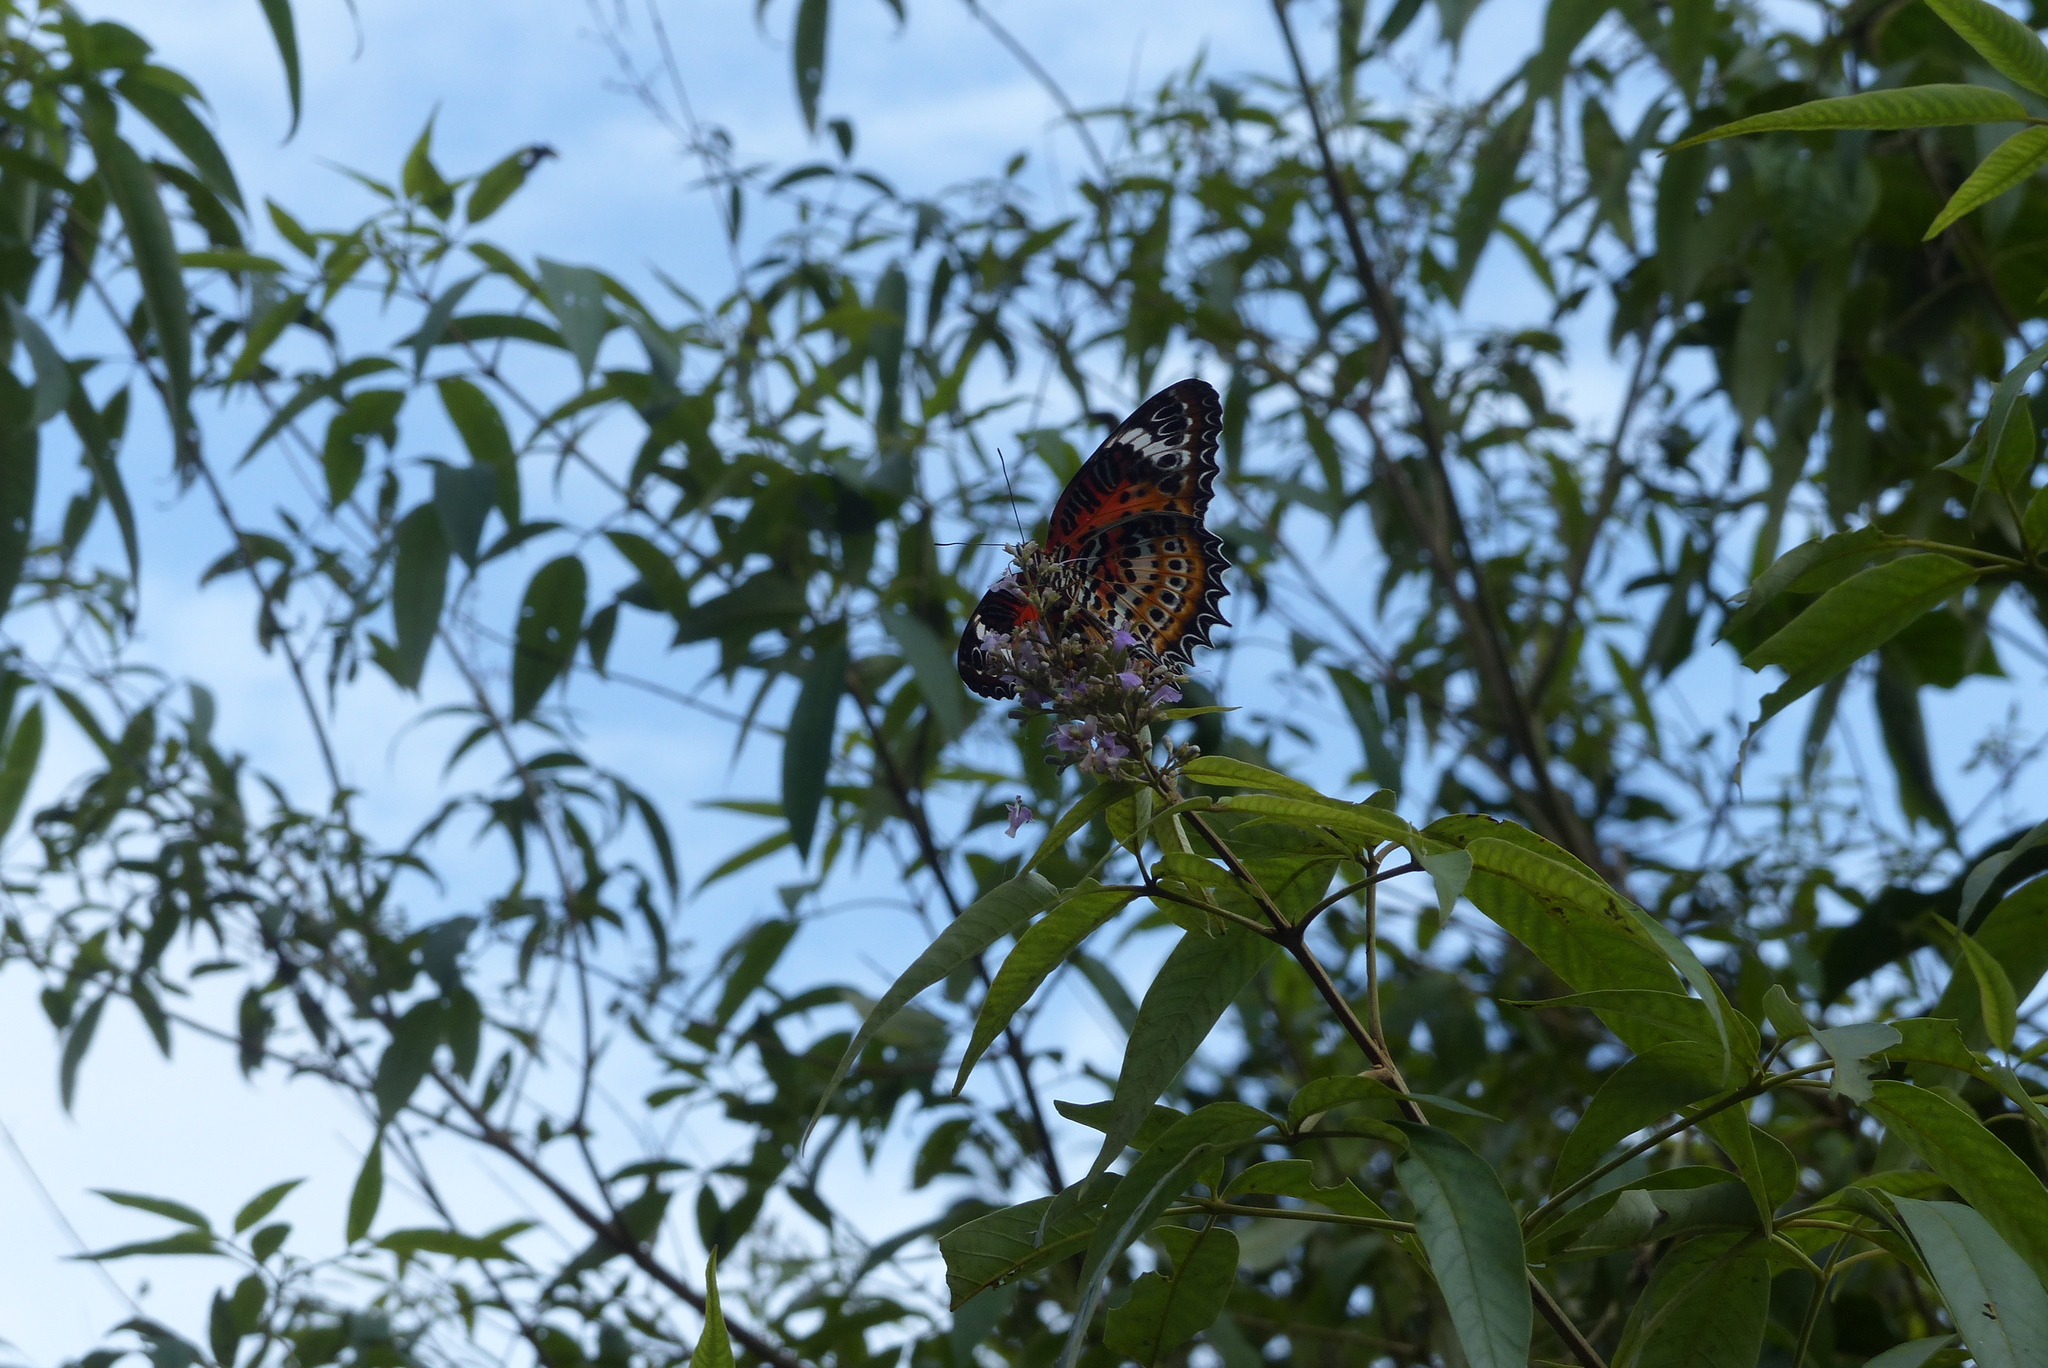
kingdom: Animalia
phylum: Arthropoda
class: Insecta
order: Lepidoptera
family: Nymphalidae
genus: Cethosia
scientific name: Cethosia
